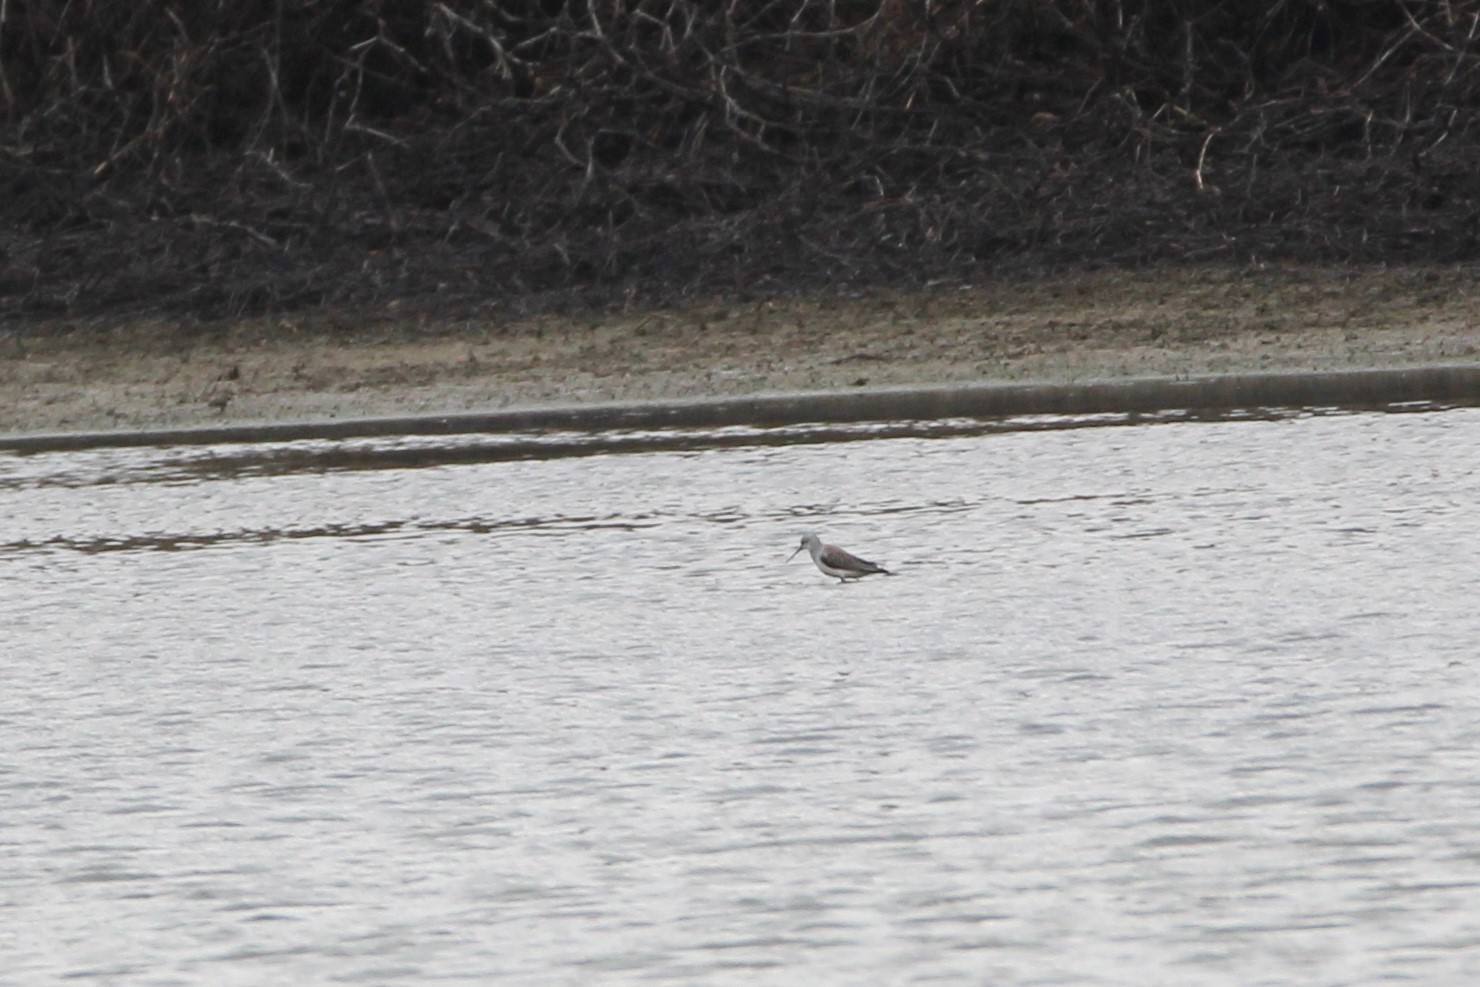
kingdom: Animalia
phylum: Chordata
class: Aves
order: Charadriiformes
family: Scolopacidae
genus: Tringa
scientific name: Tringa stagnatilis
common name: Marsh sandpiper
